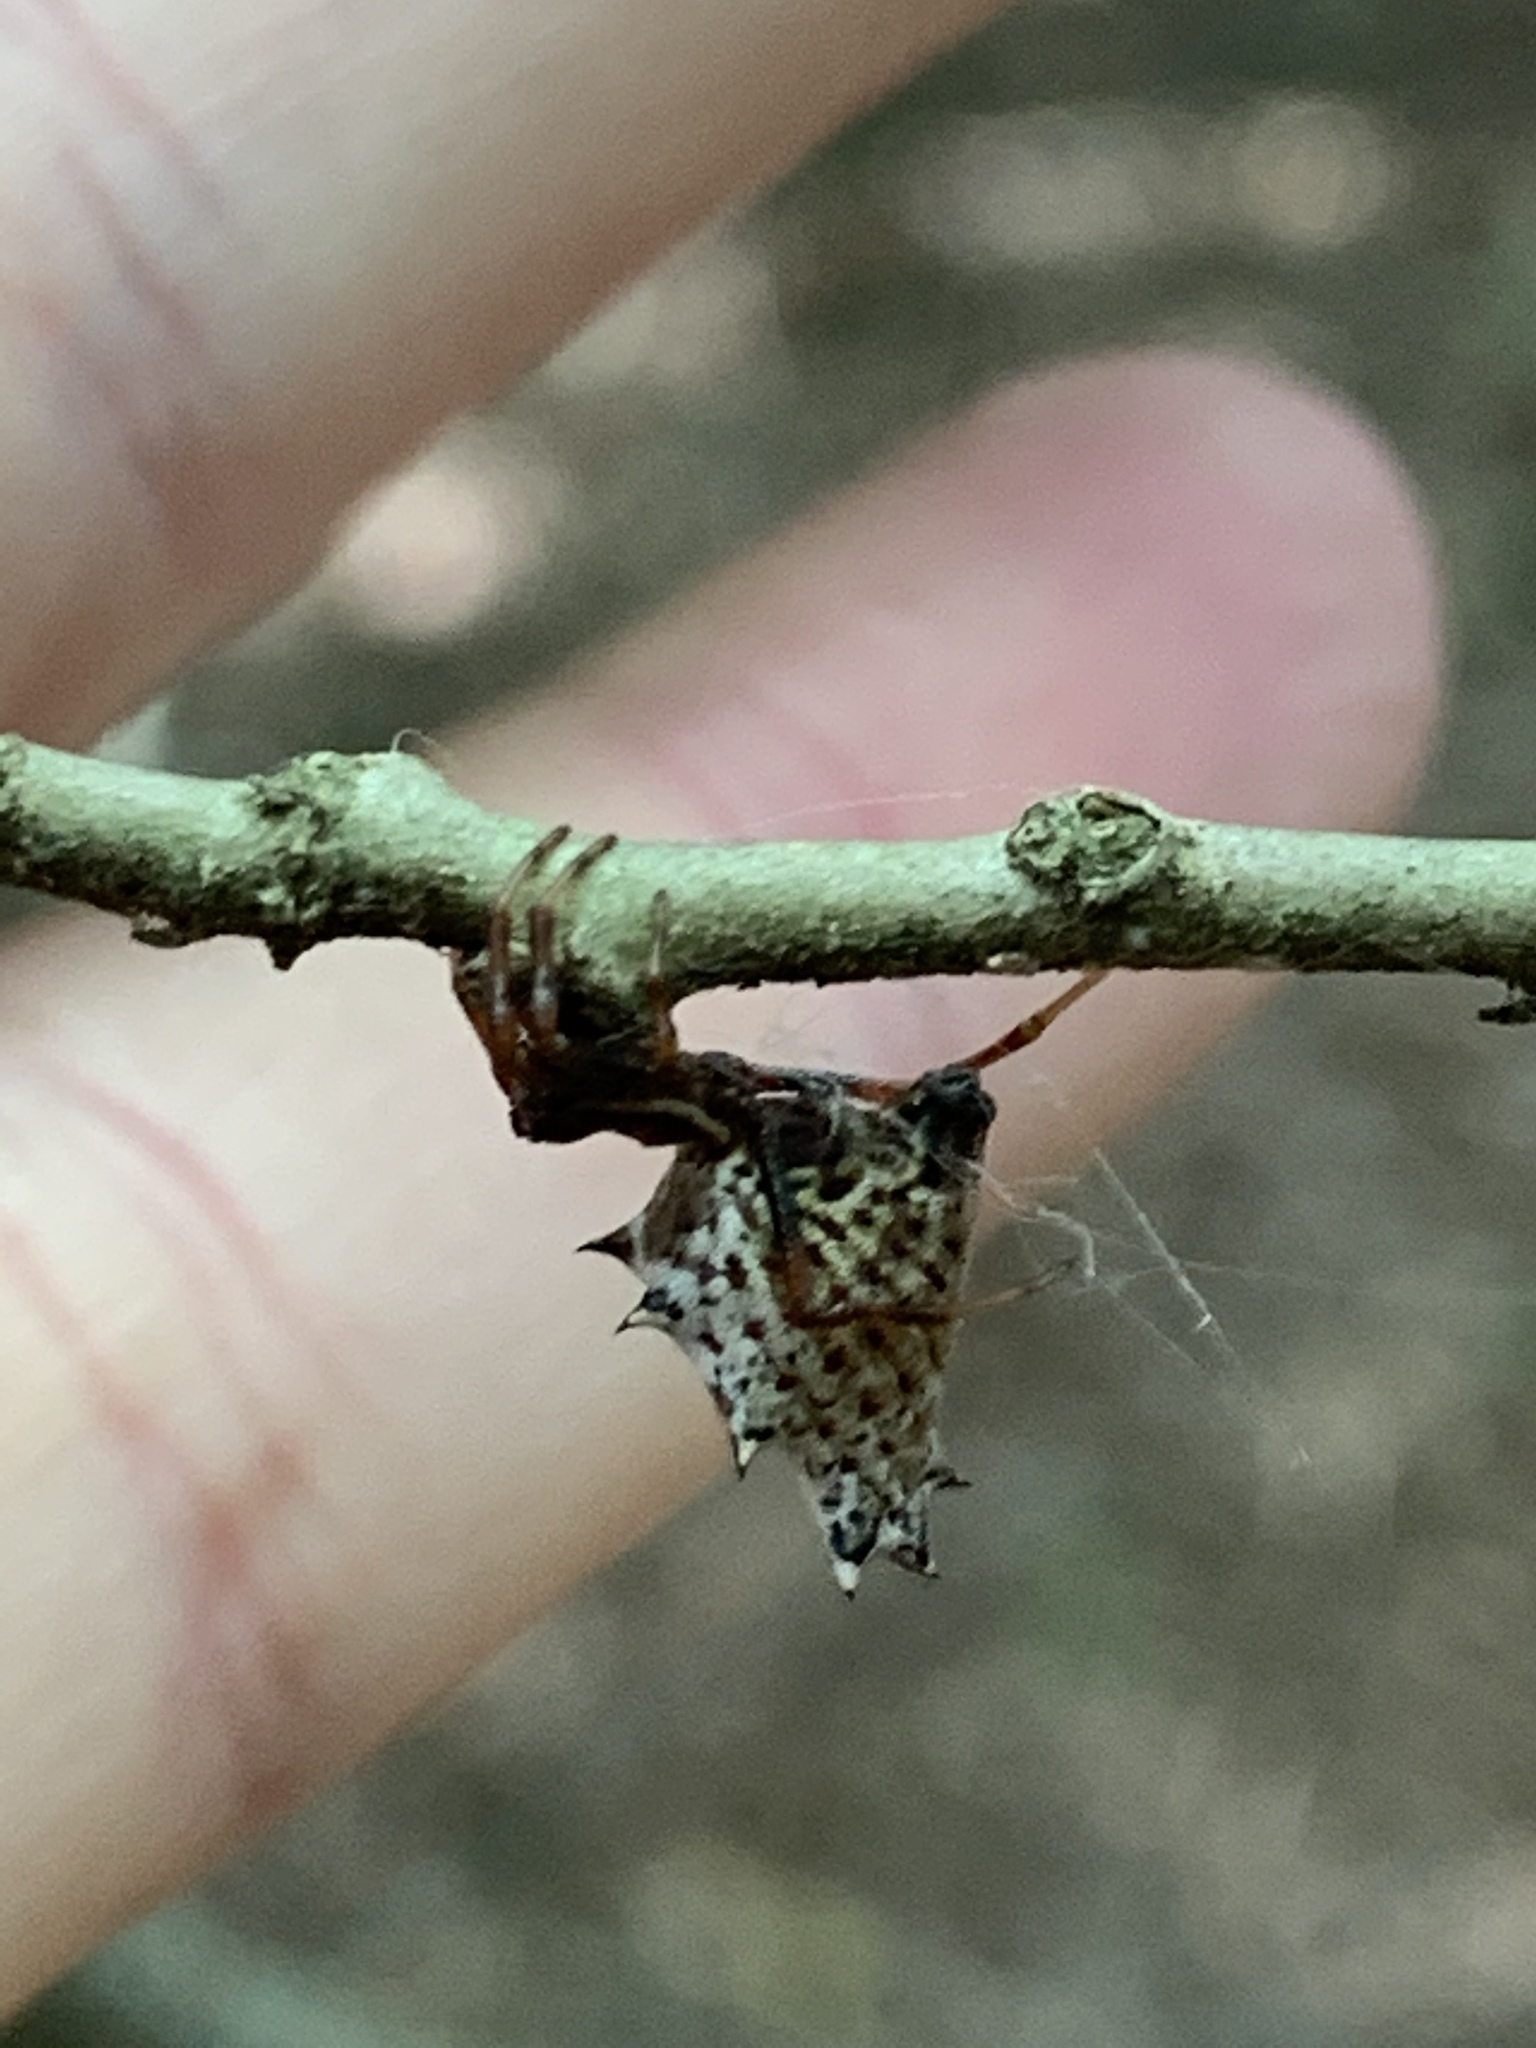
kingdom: Animalia
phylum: Arthropoda
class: Arachnida
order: Araneae
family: Araneidae
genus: Micrathena
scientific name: Micrathena gracilis
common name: Orb weavers
